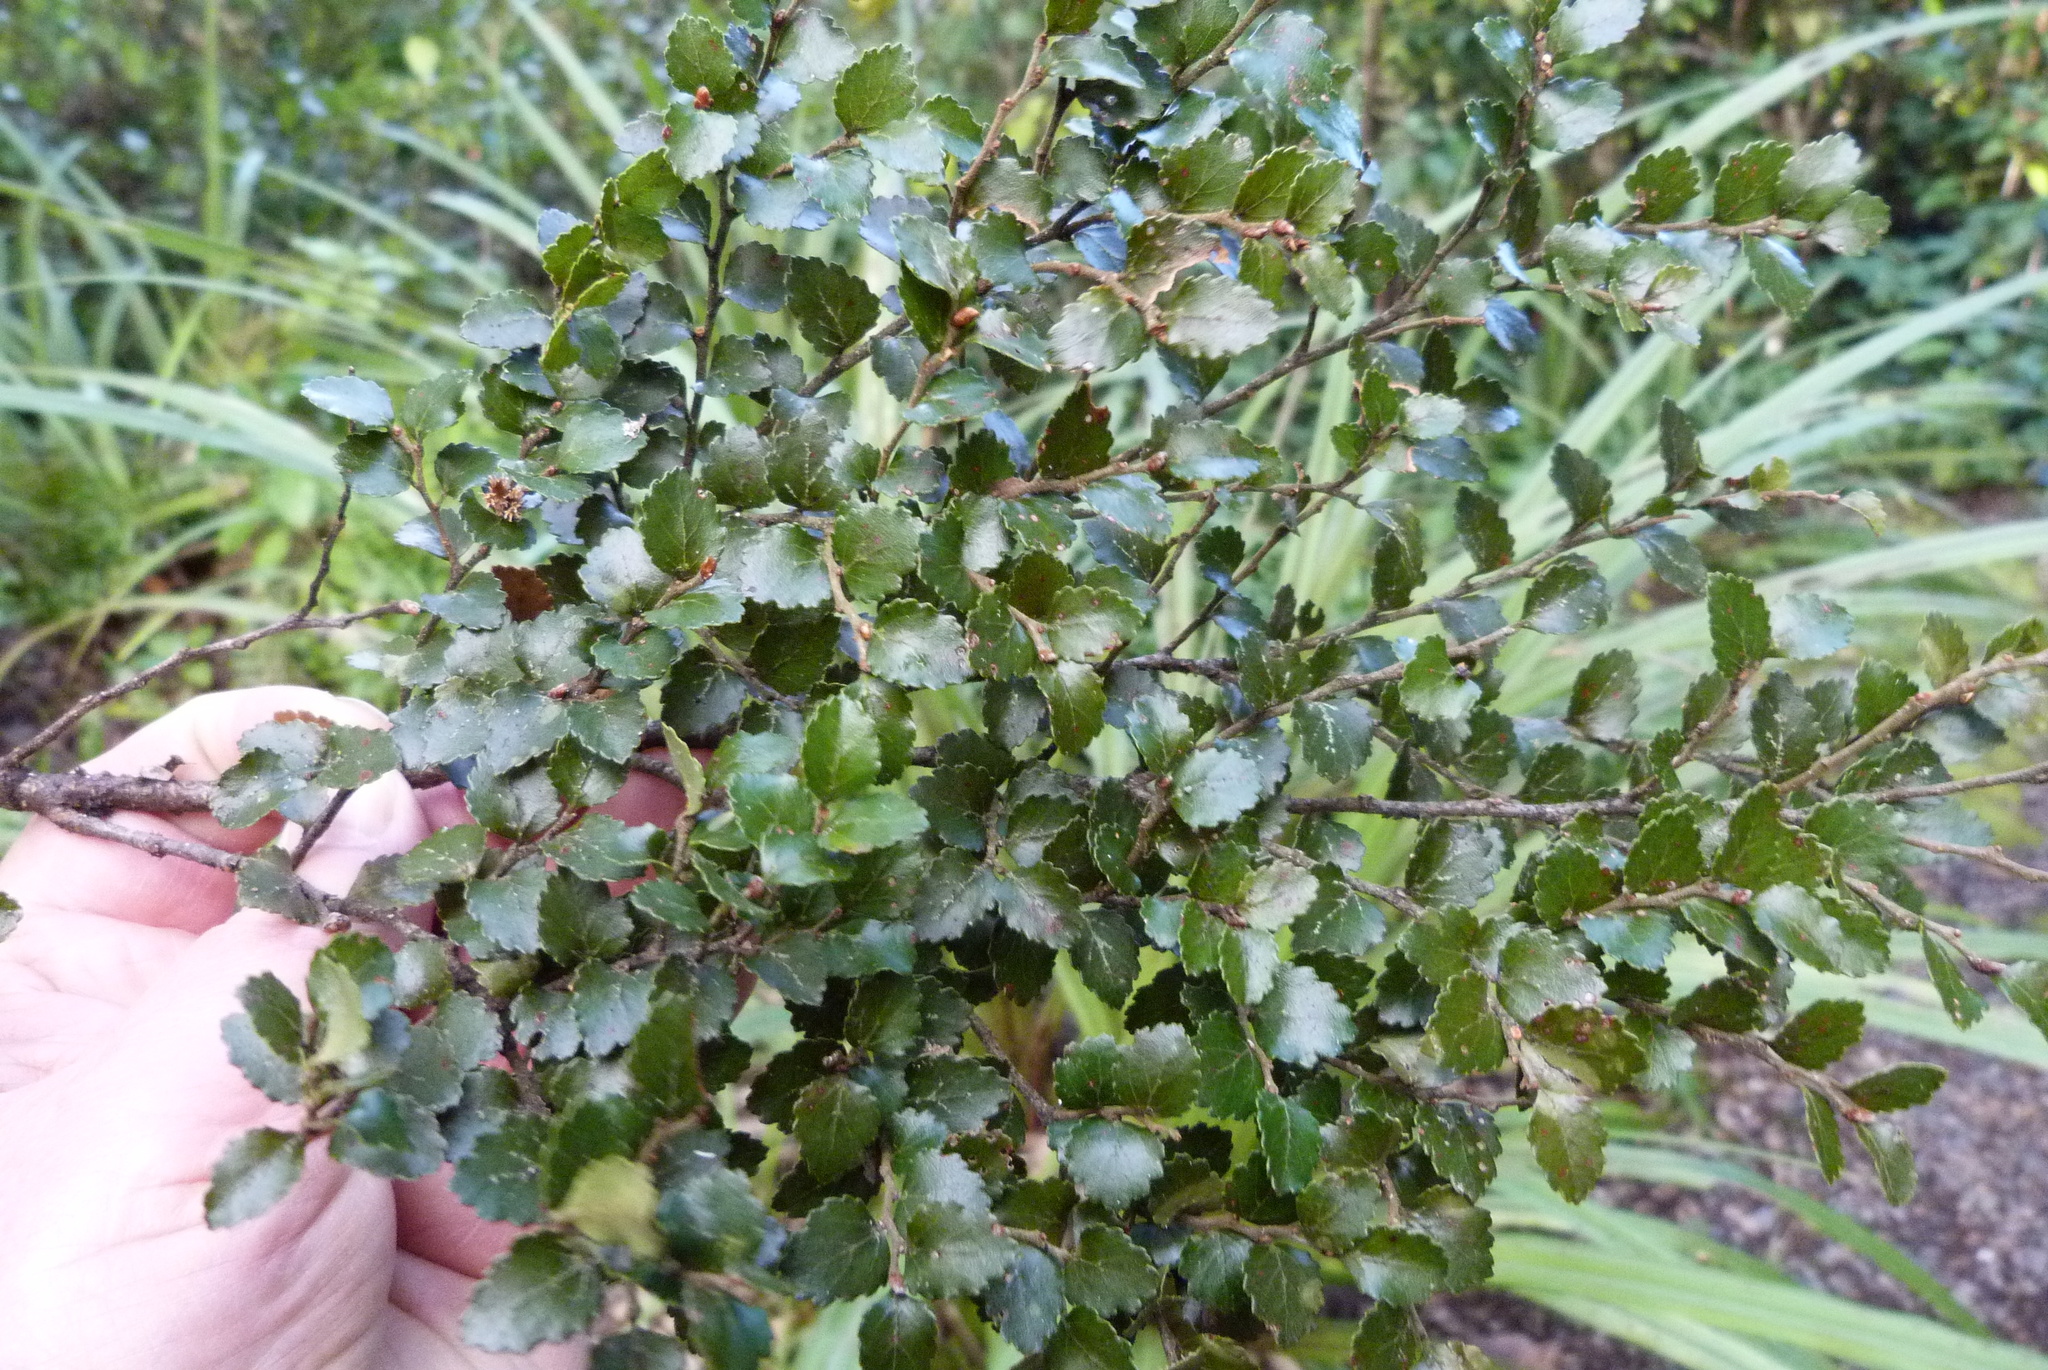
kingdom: Plantae
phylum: Tracheophyta
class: Magnoliopsida
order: Fagales
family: Nothofagaceae
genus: Nothofagus
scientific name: Nothofagus menziesii
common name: Silver beech
